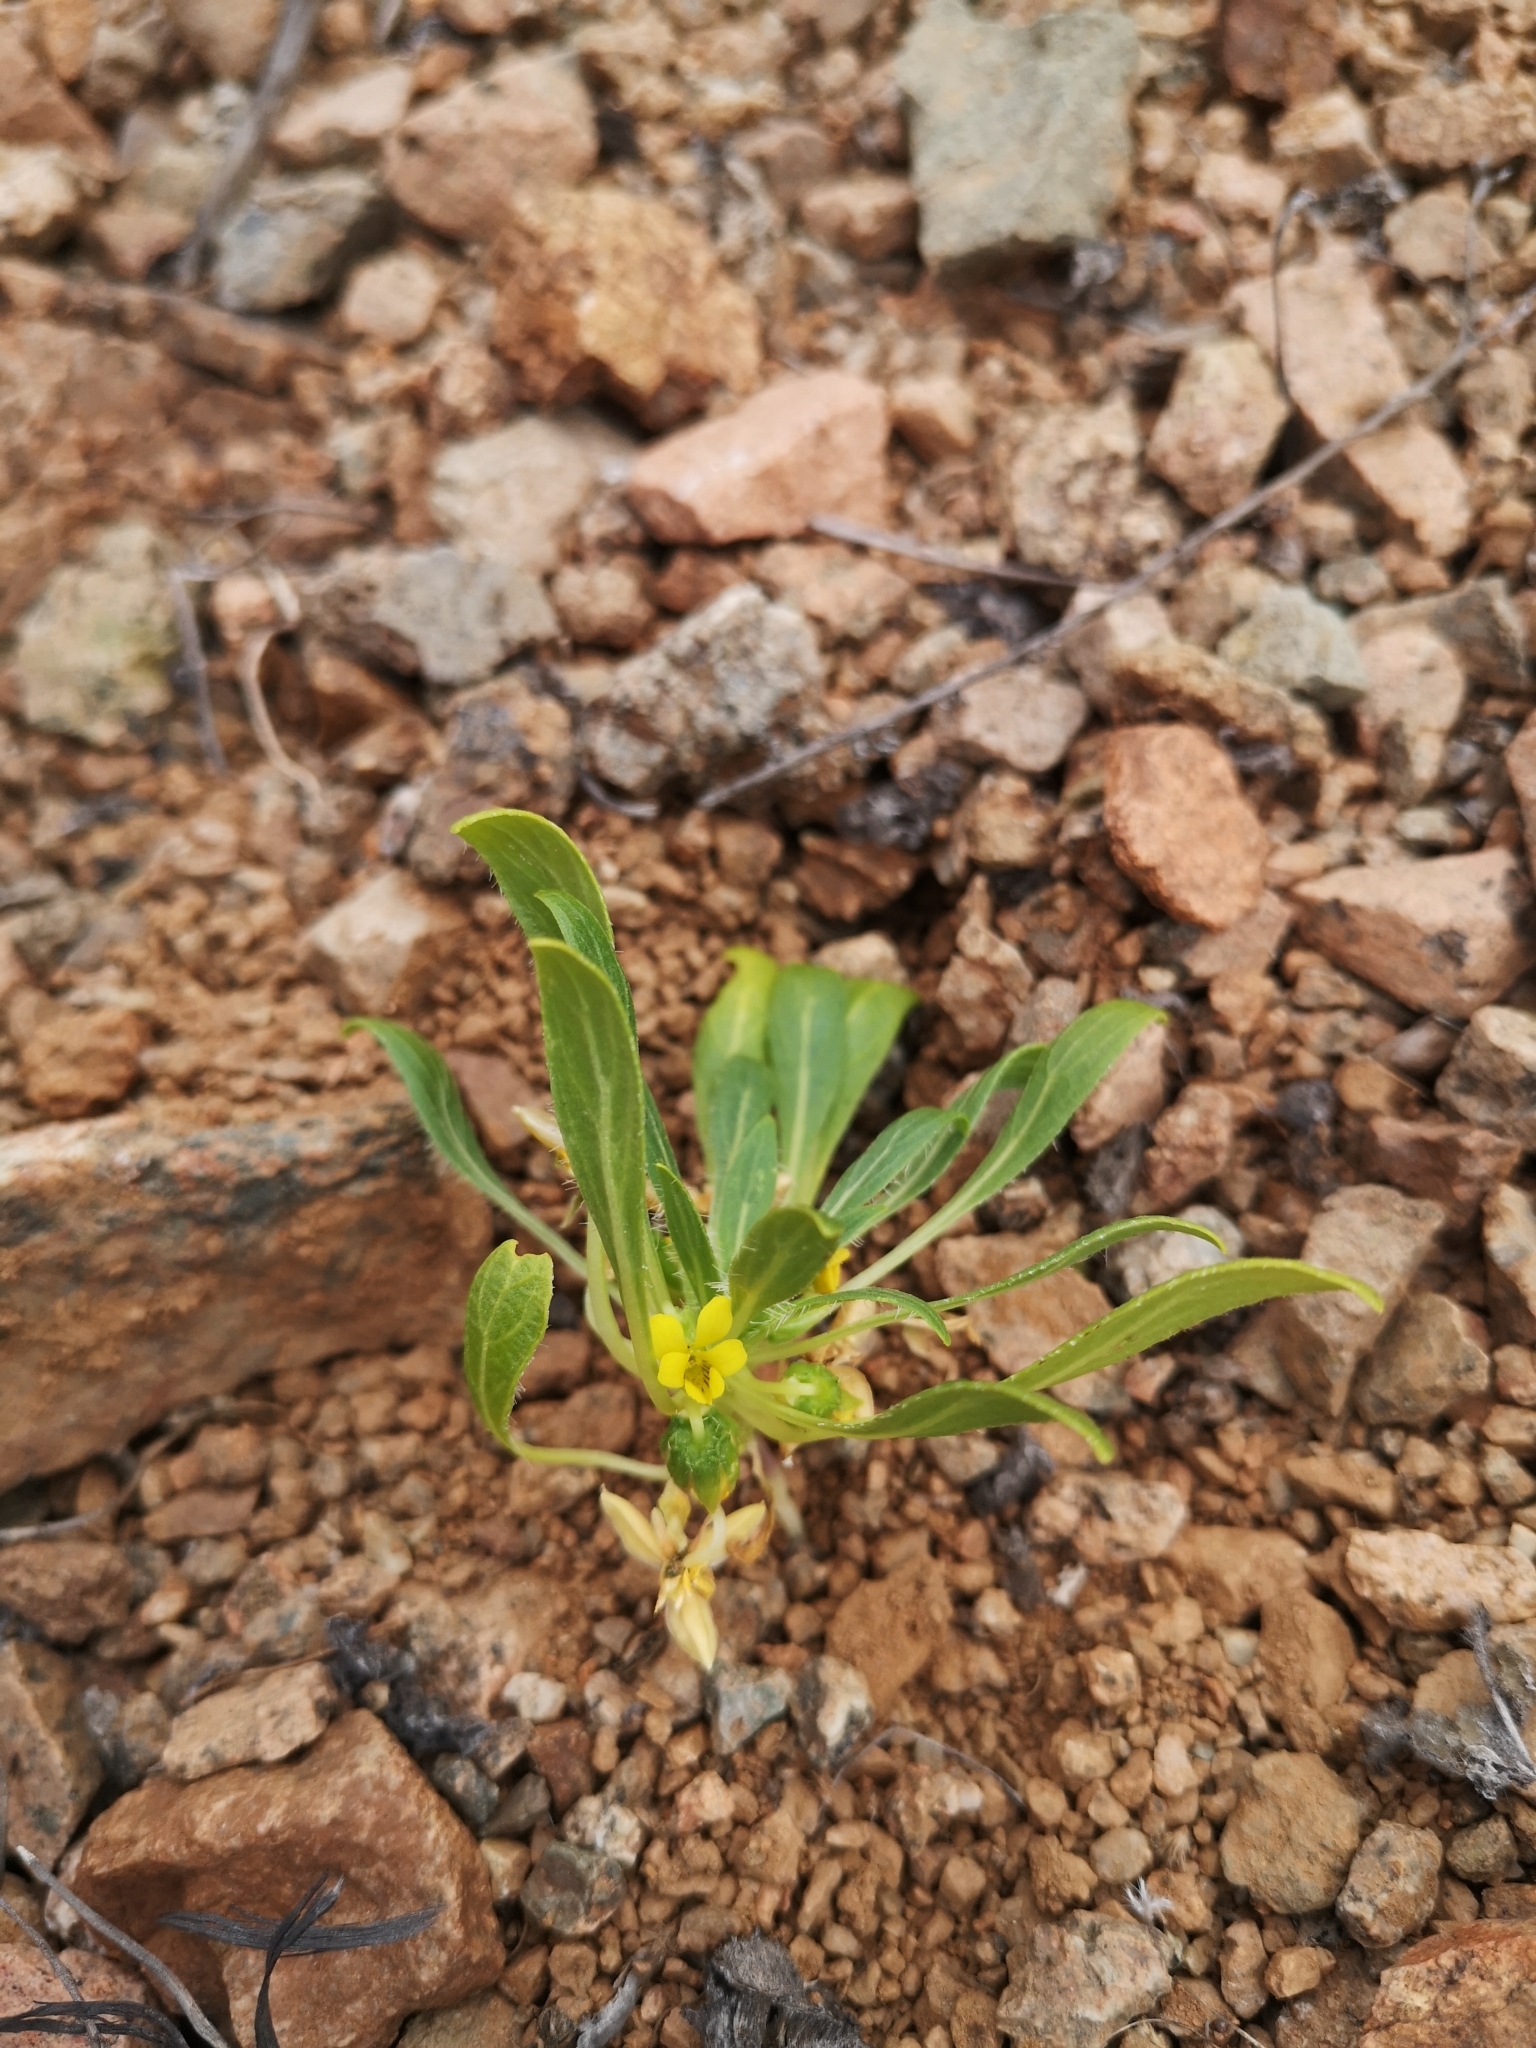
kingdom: Plantae
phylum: Tracheophyta
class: Magnoliopsida
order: Malpighiales
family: Violaceae
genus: Viola
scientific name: Viola polypoda
